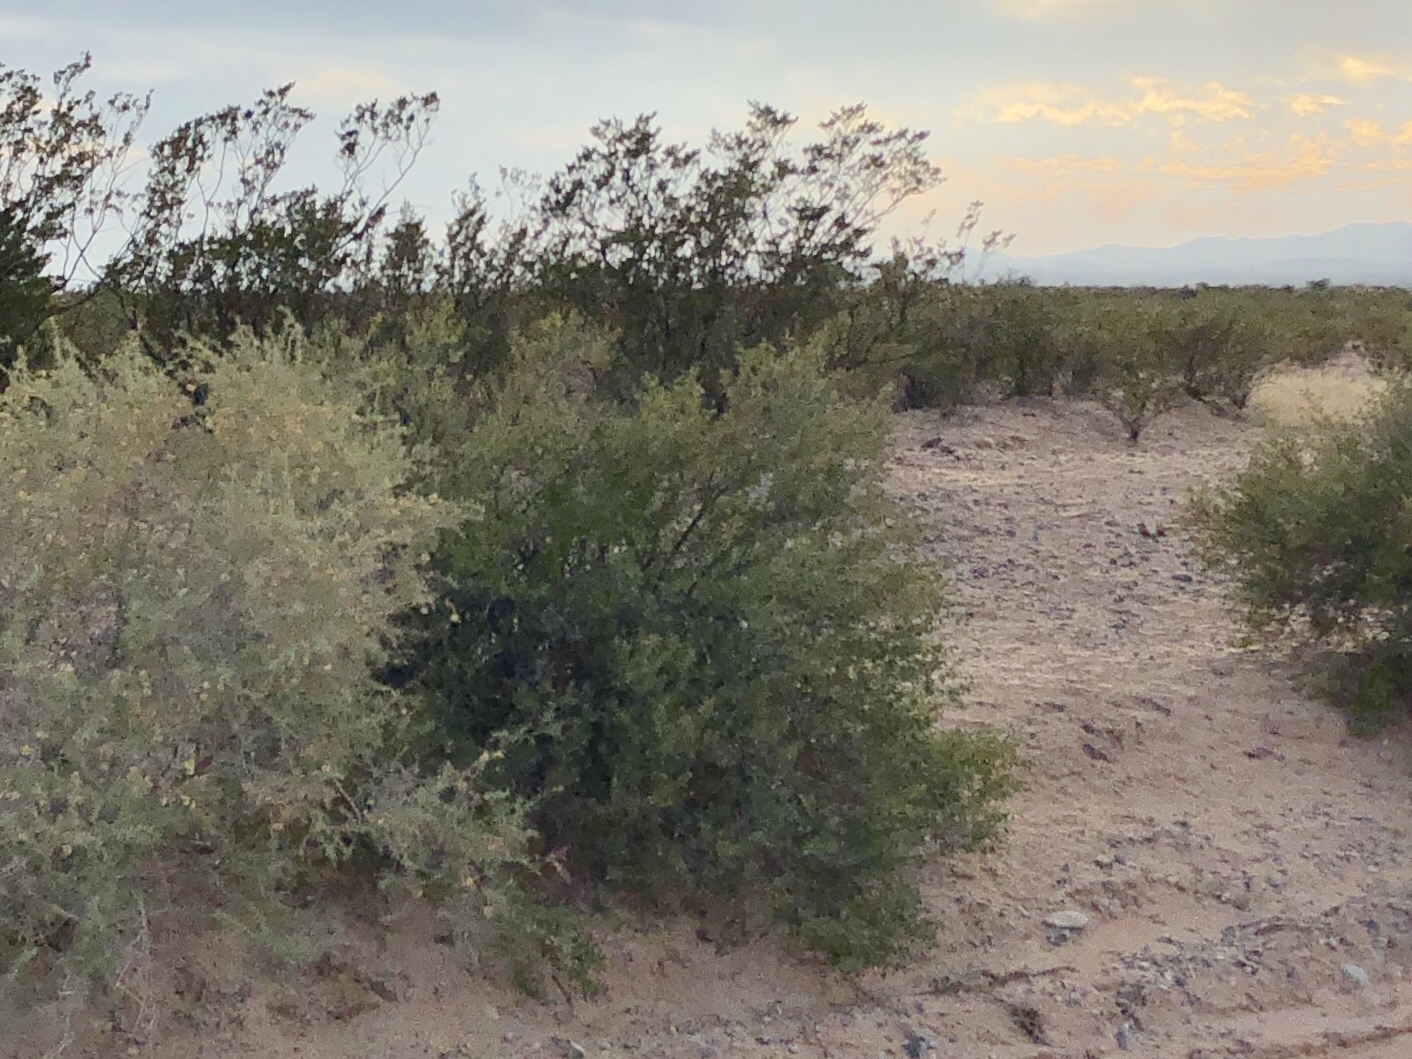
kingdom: Plantae
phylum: Tracheophyta
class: Magnoliopsida
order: Zygophyllales
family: Zygophyllaceae
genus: Larrea
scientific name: Larrea tridentata
